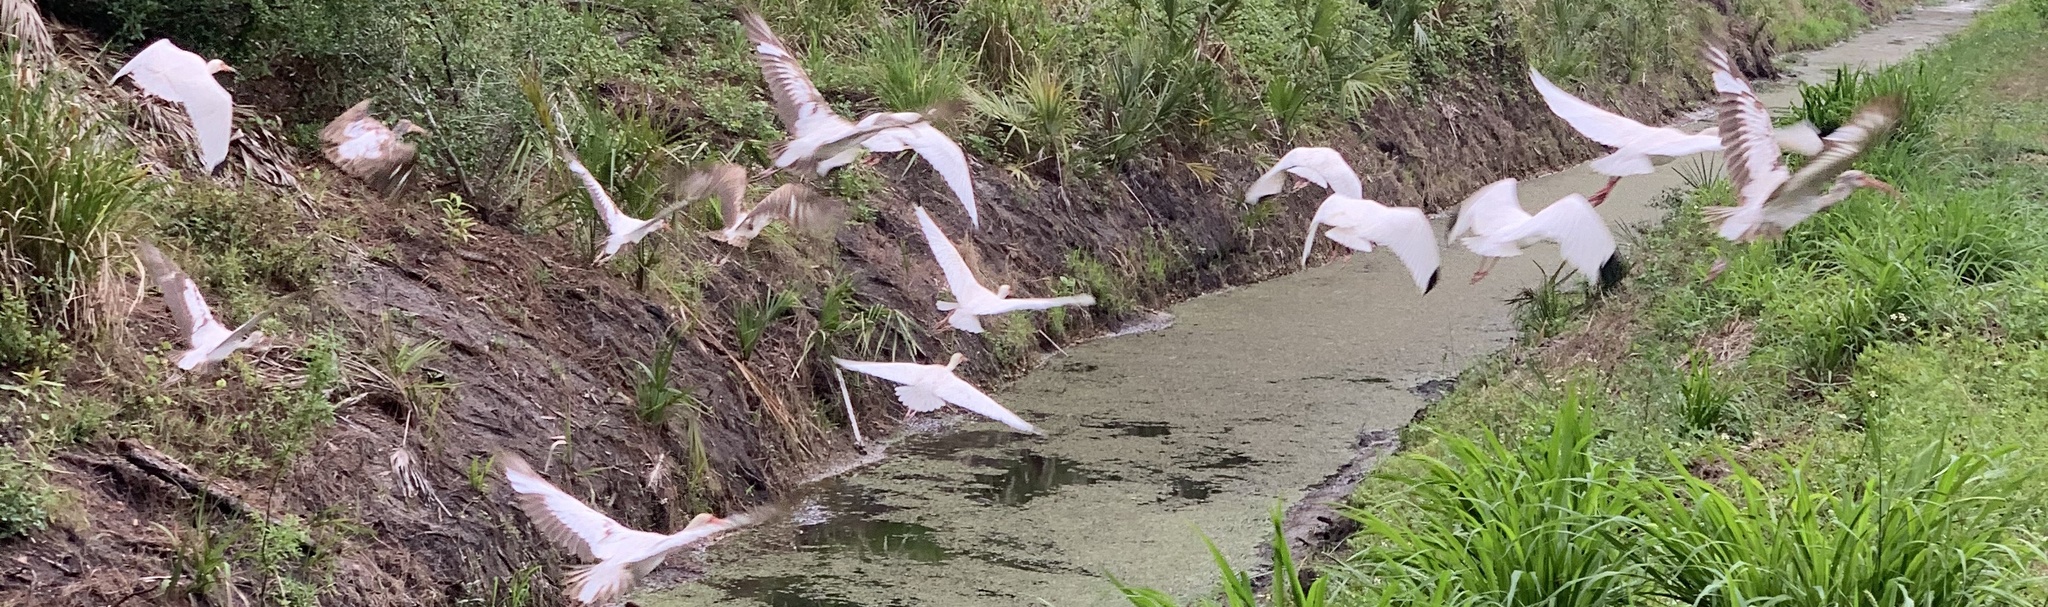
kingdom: Animalia
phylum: Chordata
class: Aves
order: Pelecaniformes
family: Threskiornithidae
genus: Eudocimus
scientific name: Eudocimus albus
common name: White ibis
